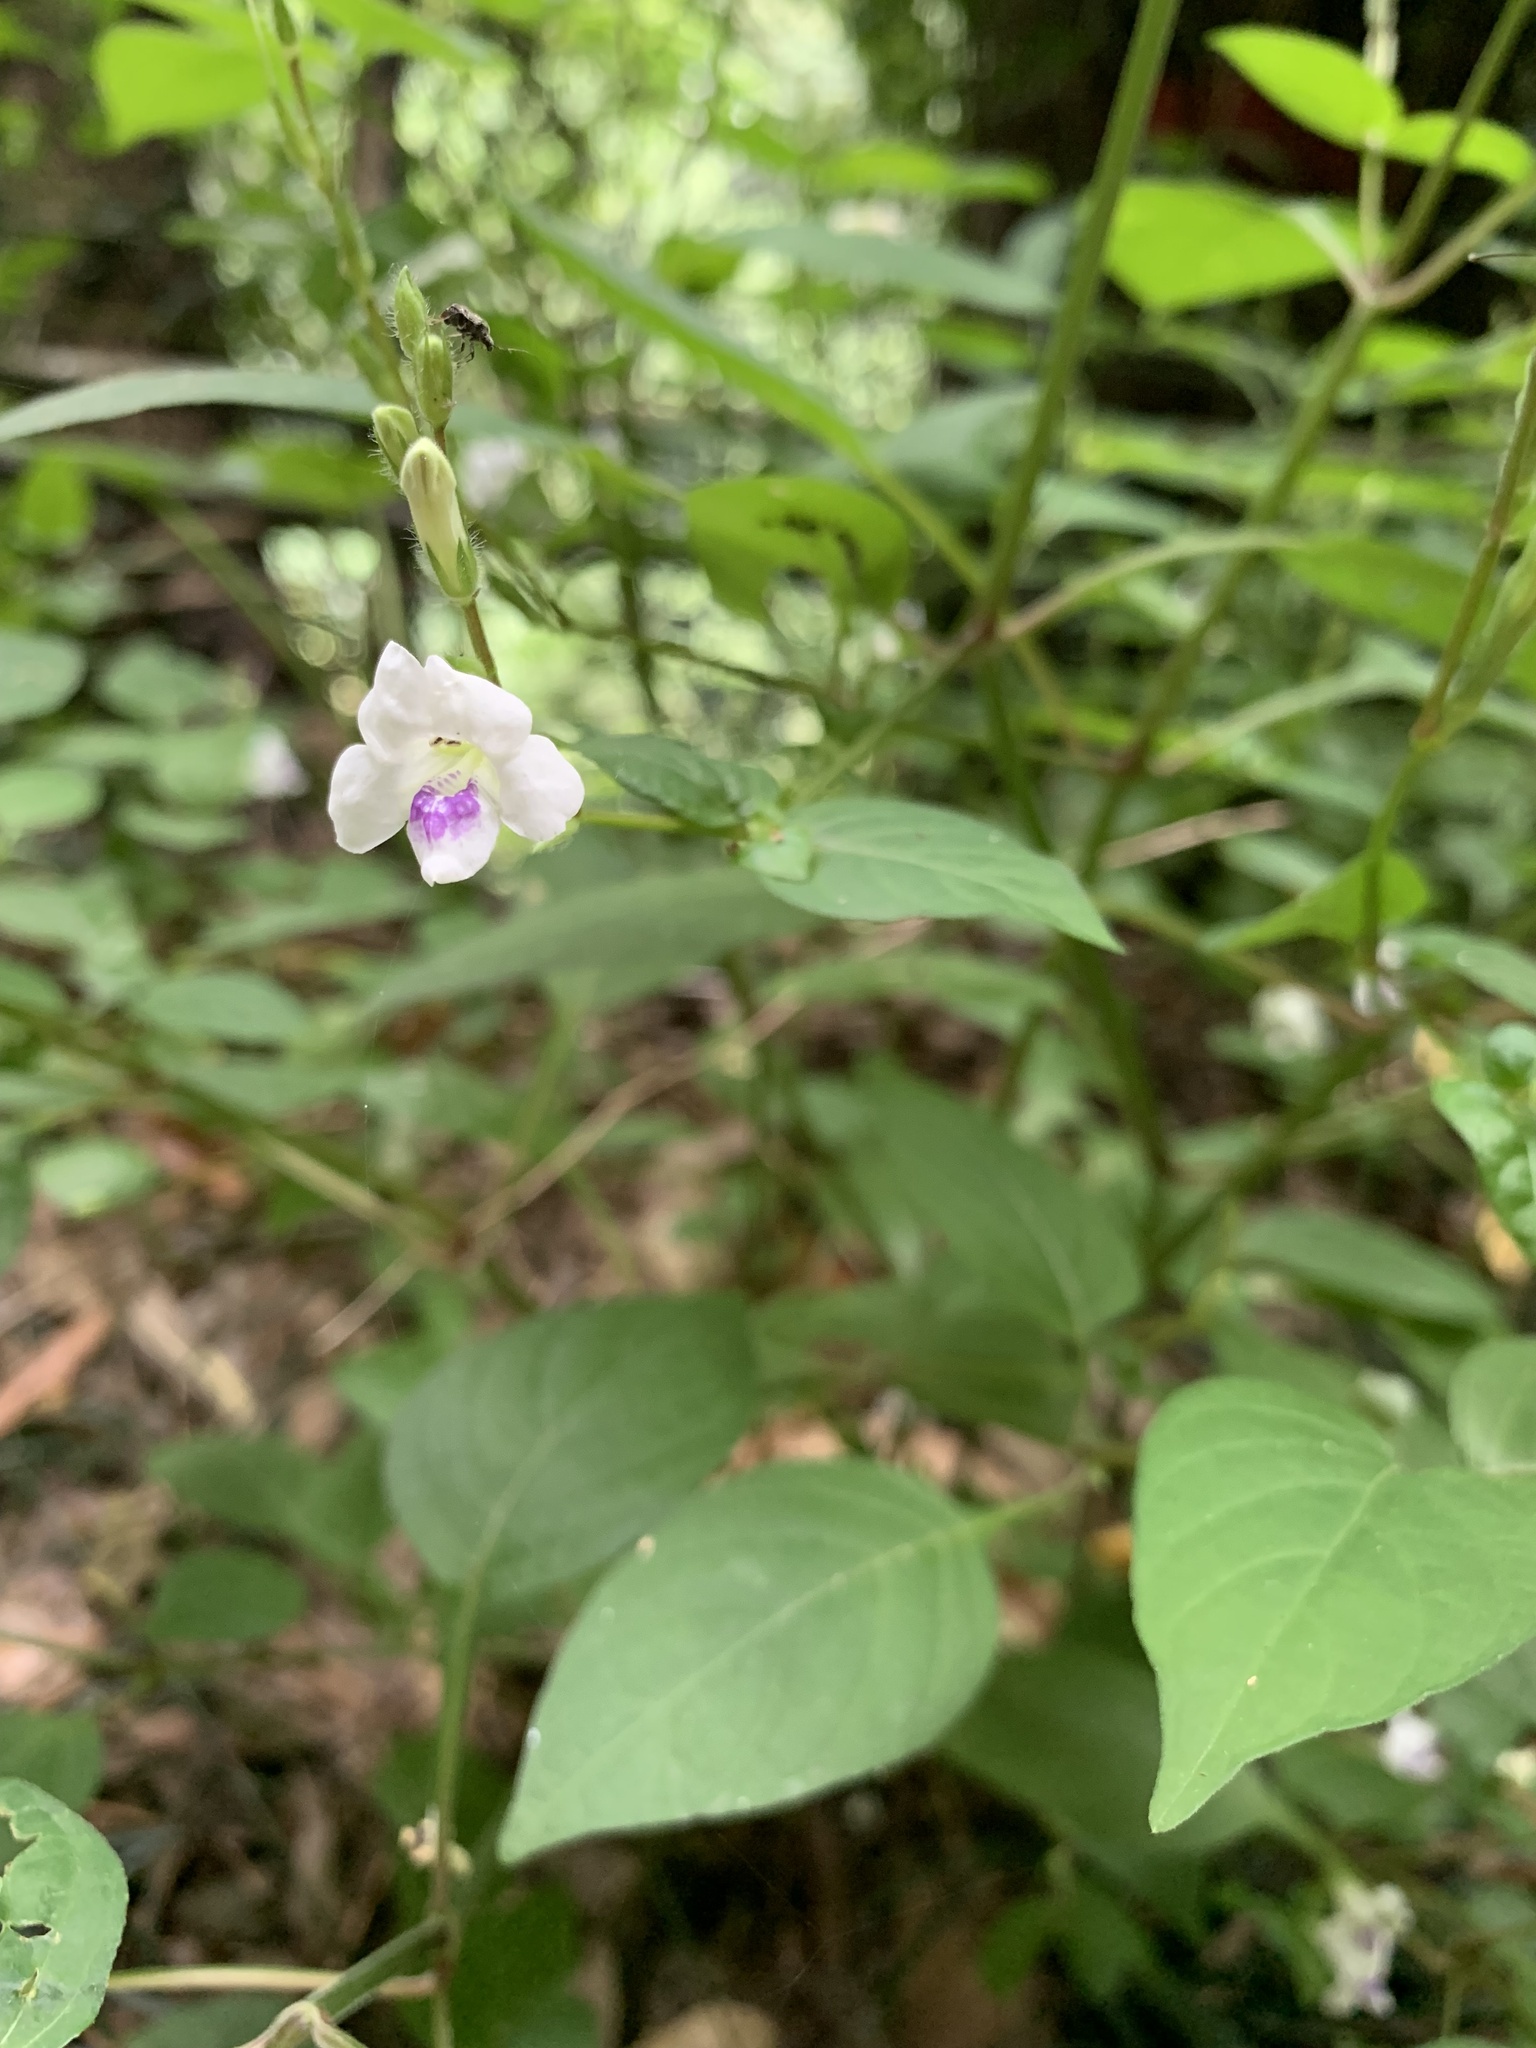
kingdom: Plantae
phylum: Tracheophyta
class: Magnoliopsida
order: Lamiales
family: Acanthaceae
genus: Asystasia
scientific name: Asystasia intrusa
